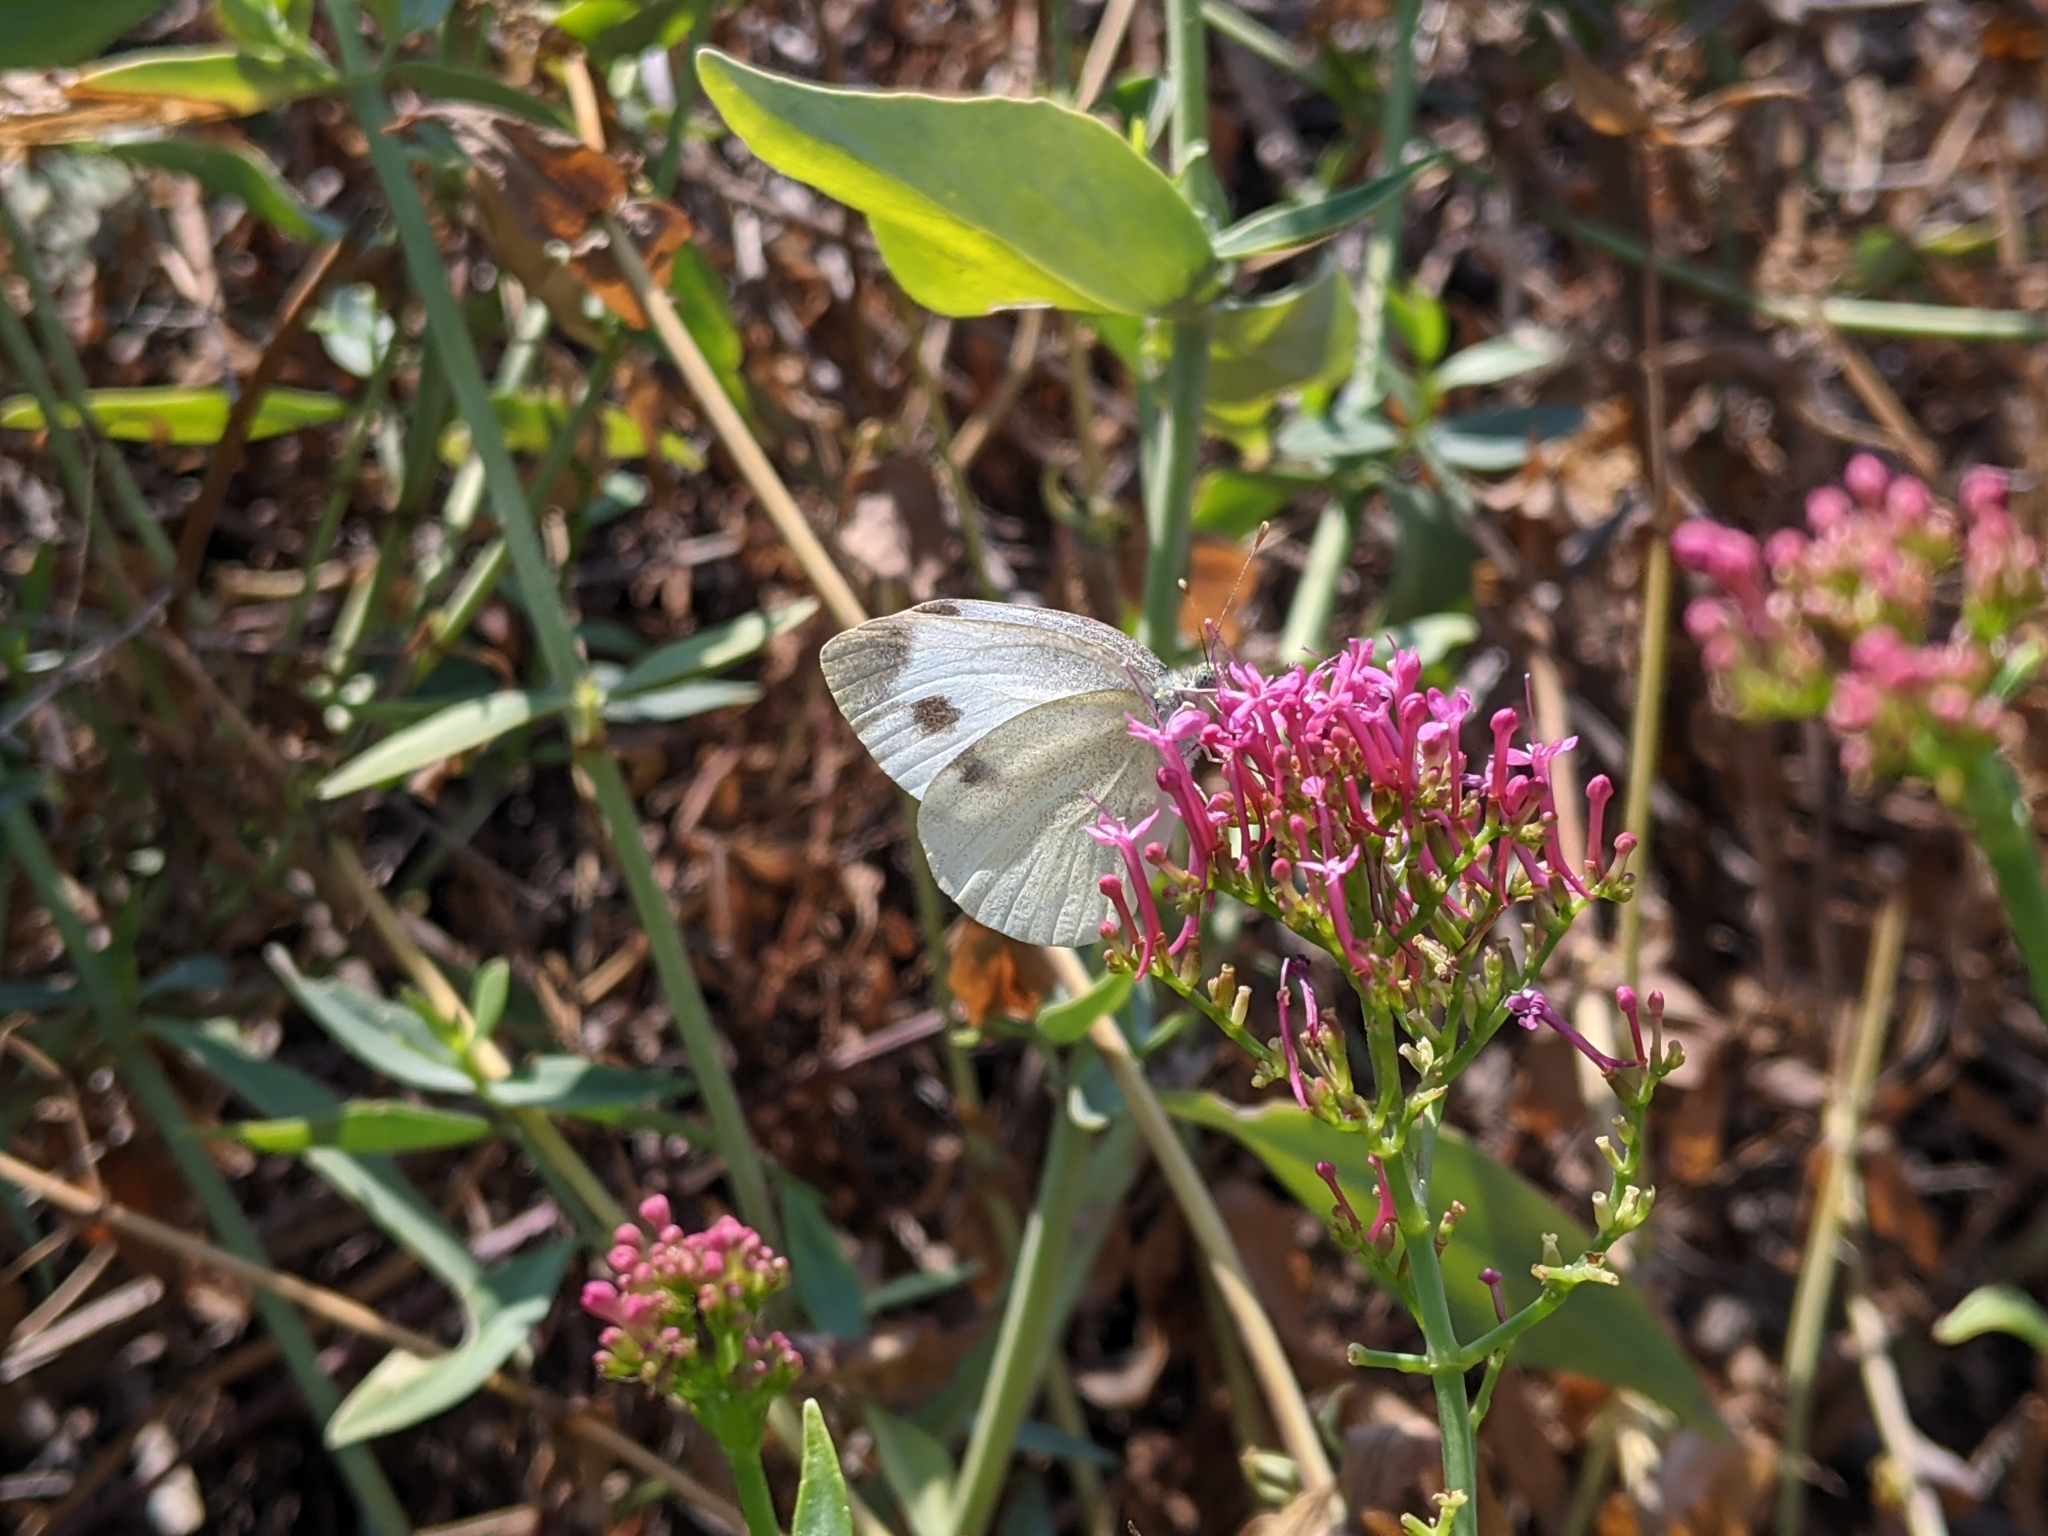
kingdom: Animalia
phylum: Arthropoda
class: Insecta
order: Lepidoptera
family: Pieridae
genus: Pieris
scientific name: Pieris mannii
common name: Southern small white
